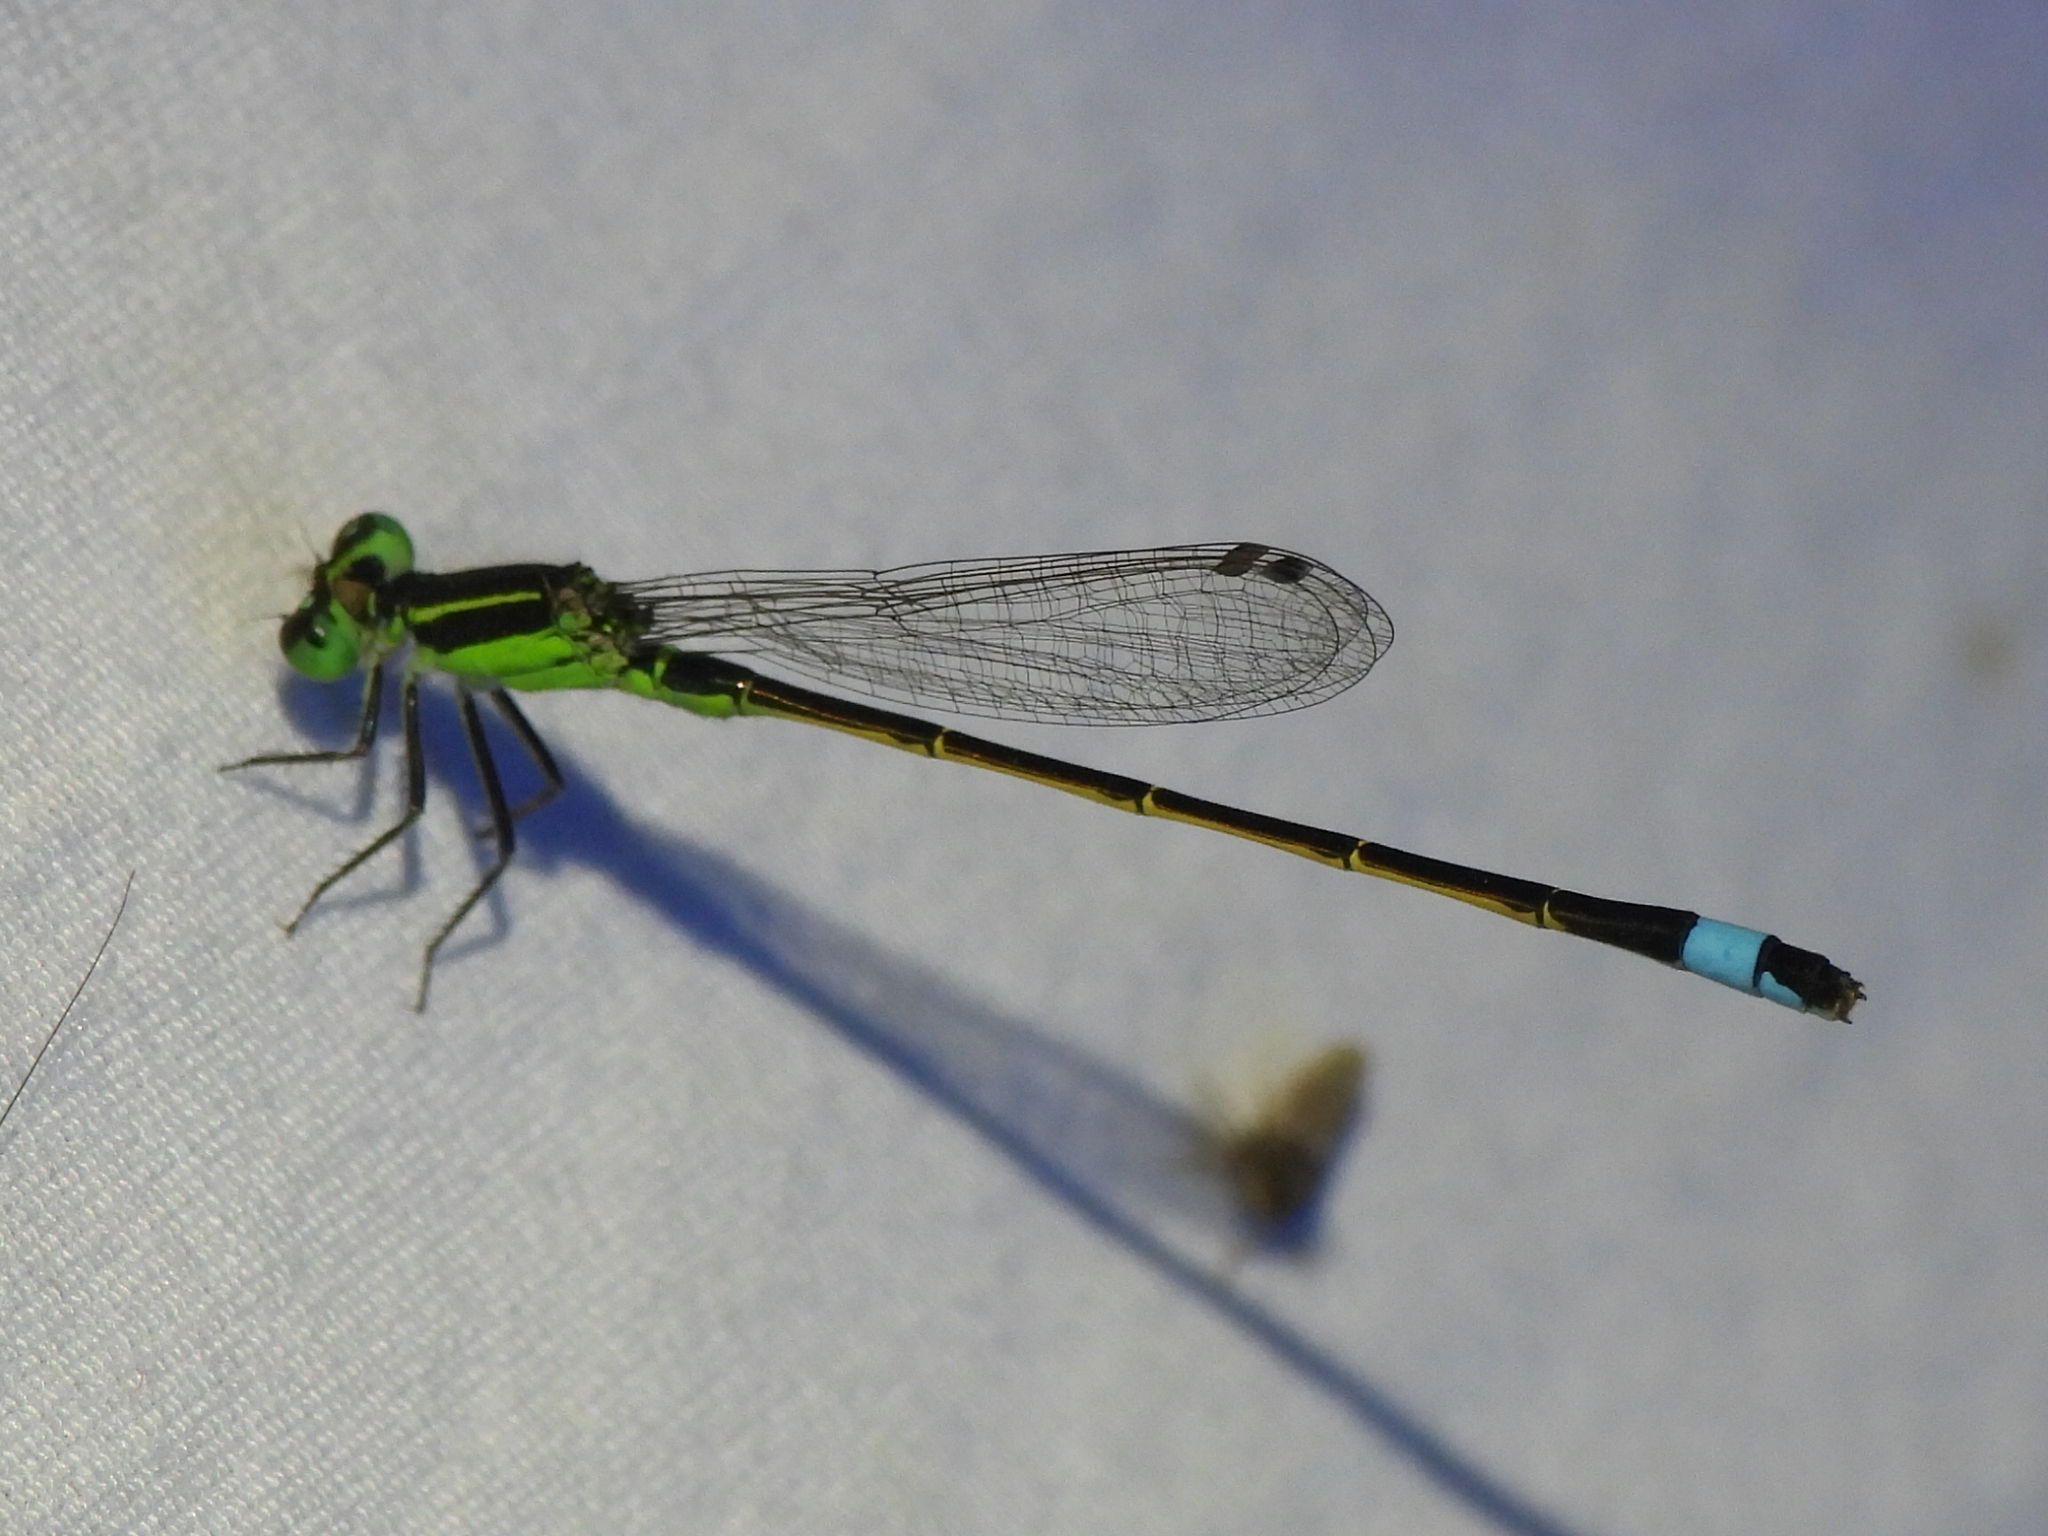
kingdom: Animalia
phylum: Arthropoda
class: Insecta
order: Odonata
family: Coenagrionidae
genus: Ischnura
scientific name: Ischnura ramburii
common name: Rambur's forktail
